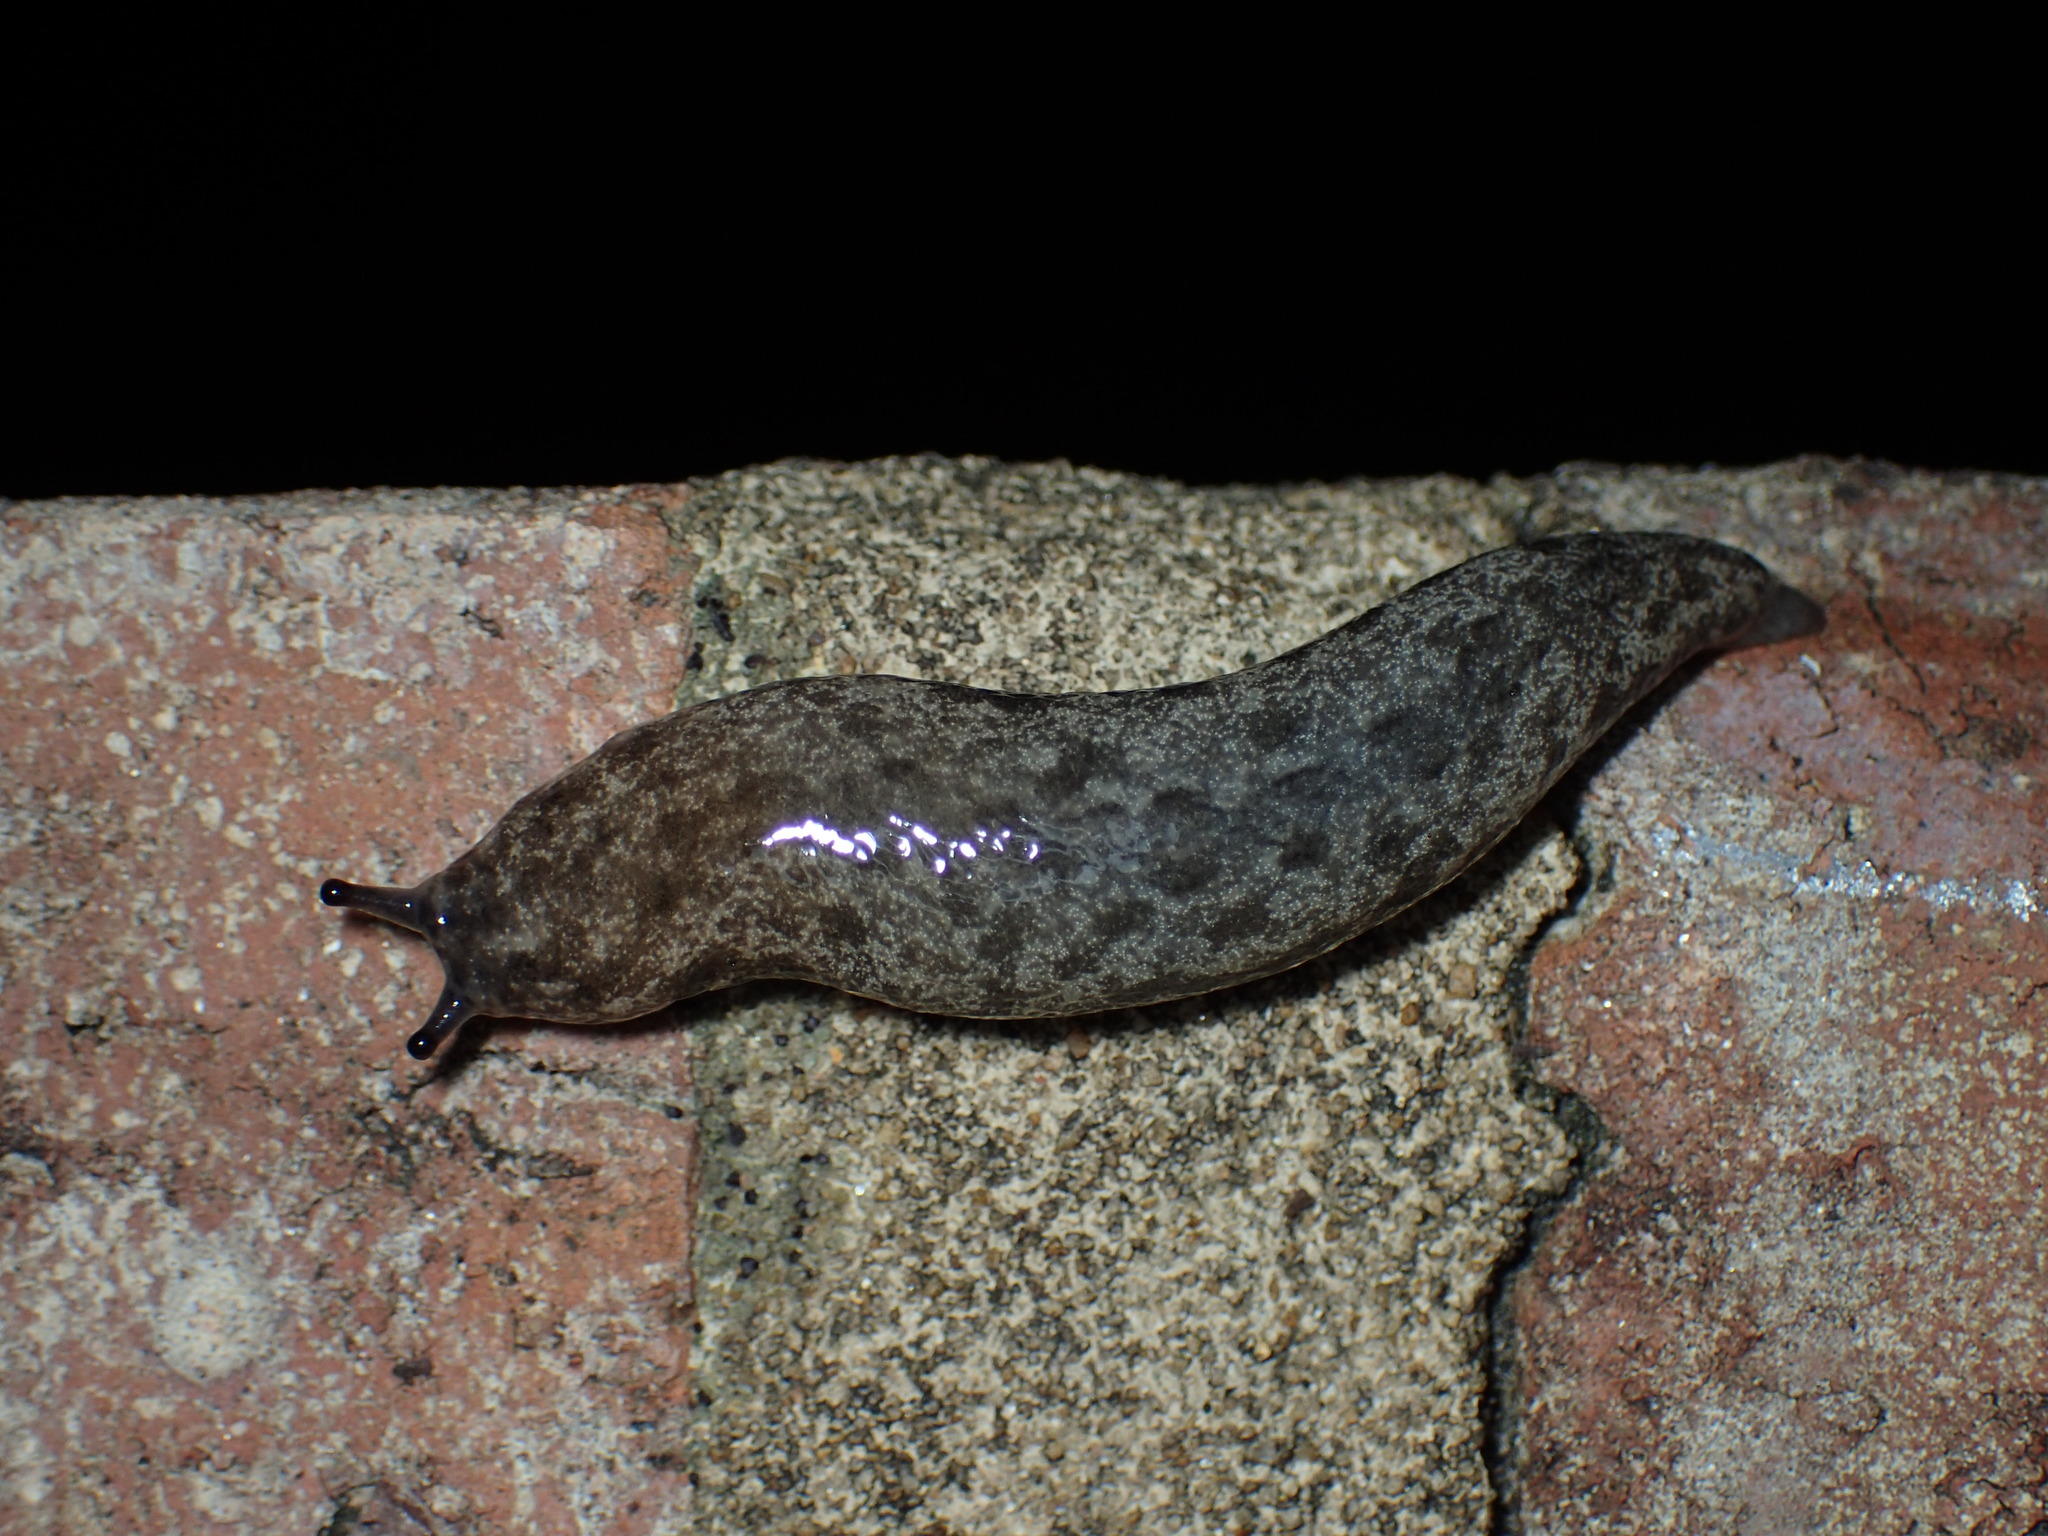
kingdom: Animalia
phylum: Mollusca
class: Gastropoda
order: Stylommatophora
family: Philomycidae
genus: Megapallifera
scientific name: Megapallifera mutabilis
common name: Changeable mantleslug
